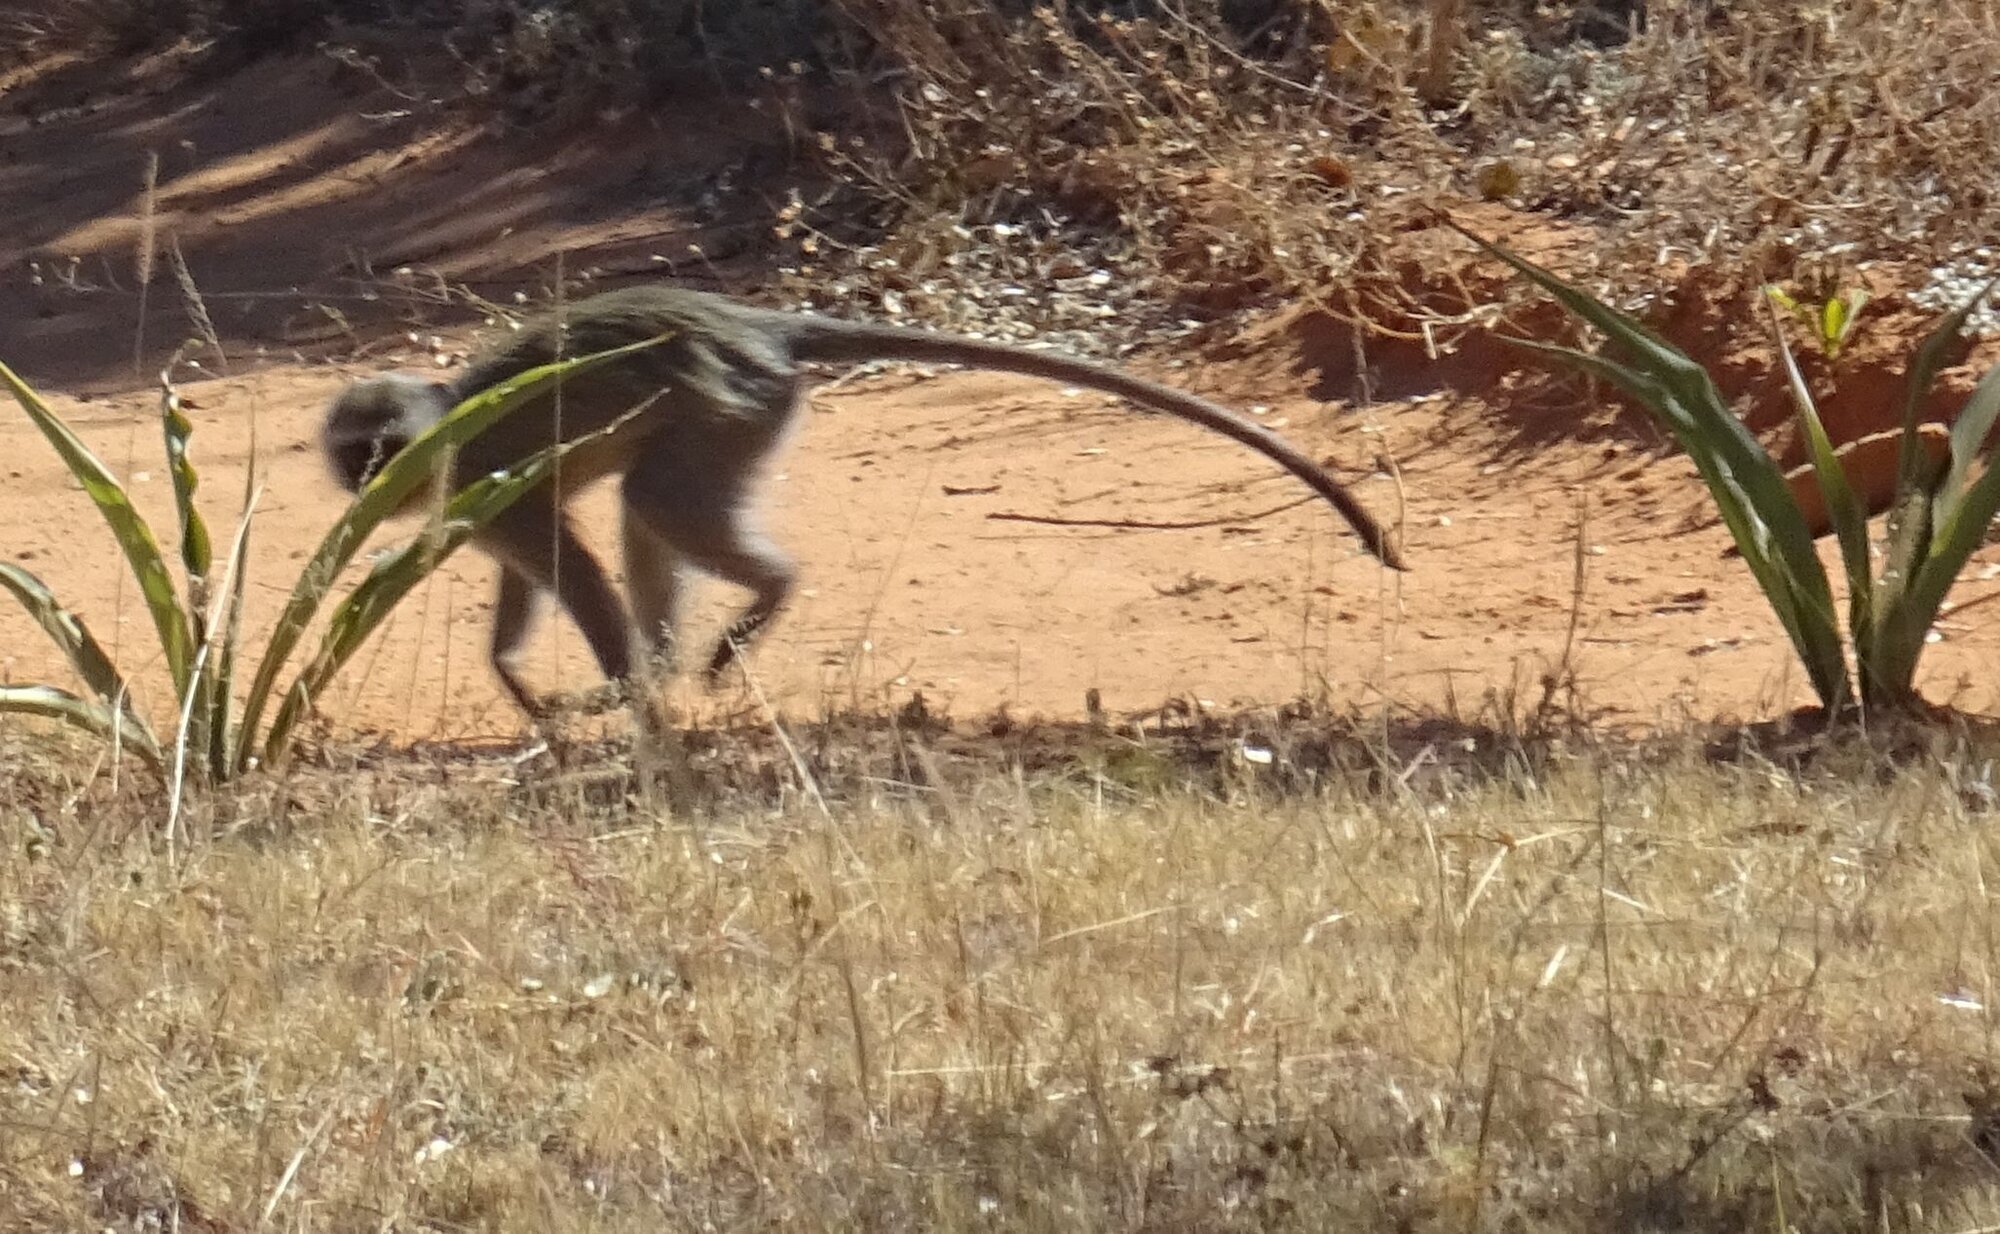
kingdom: Animalia
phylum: Chordata
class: Mammalia
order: Primates
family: Cercopithecidae
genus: Chlorocebus
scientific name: Chlorocebus pygerythrus
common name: Vervet monkey
